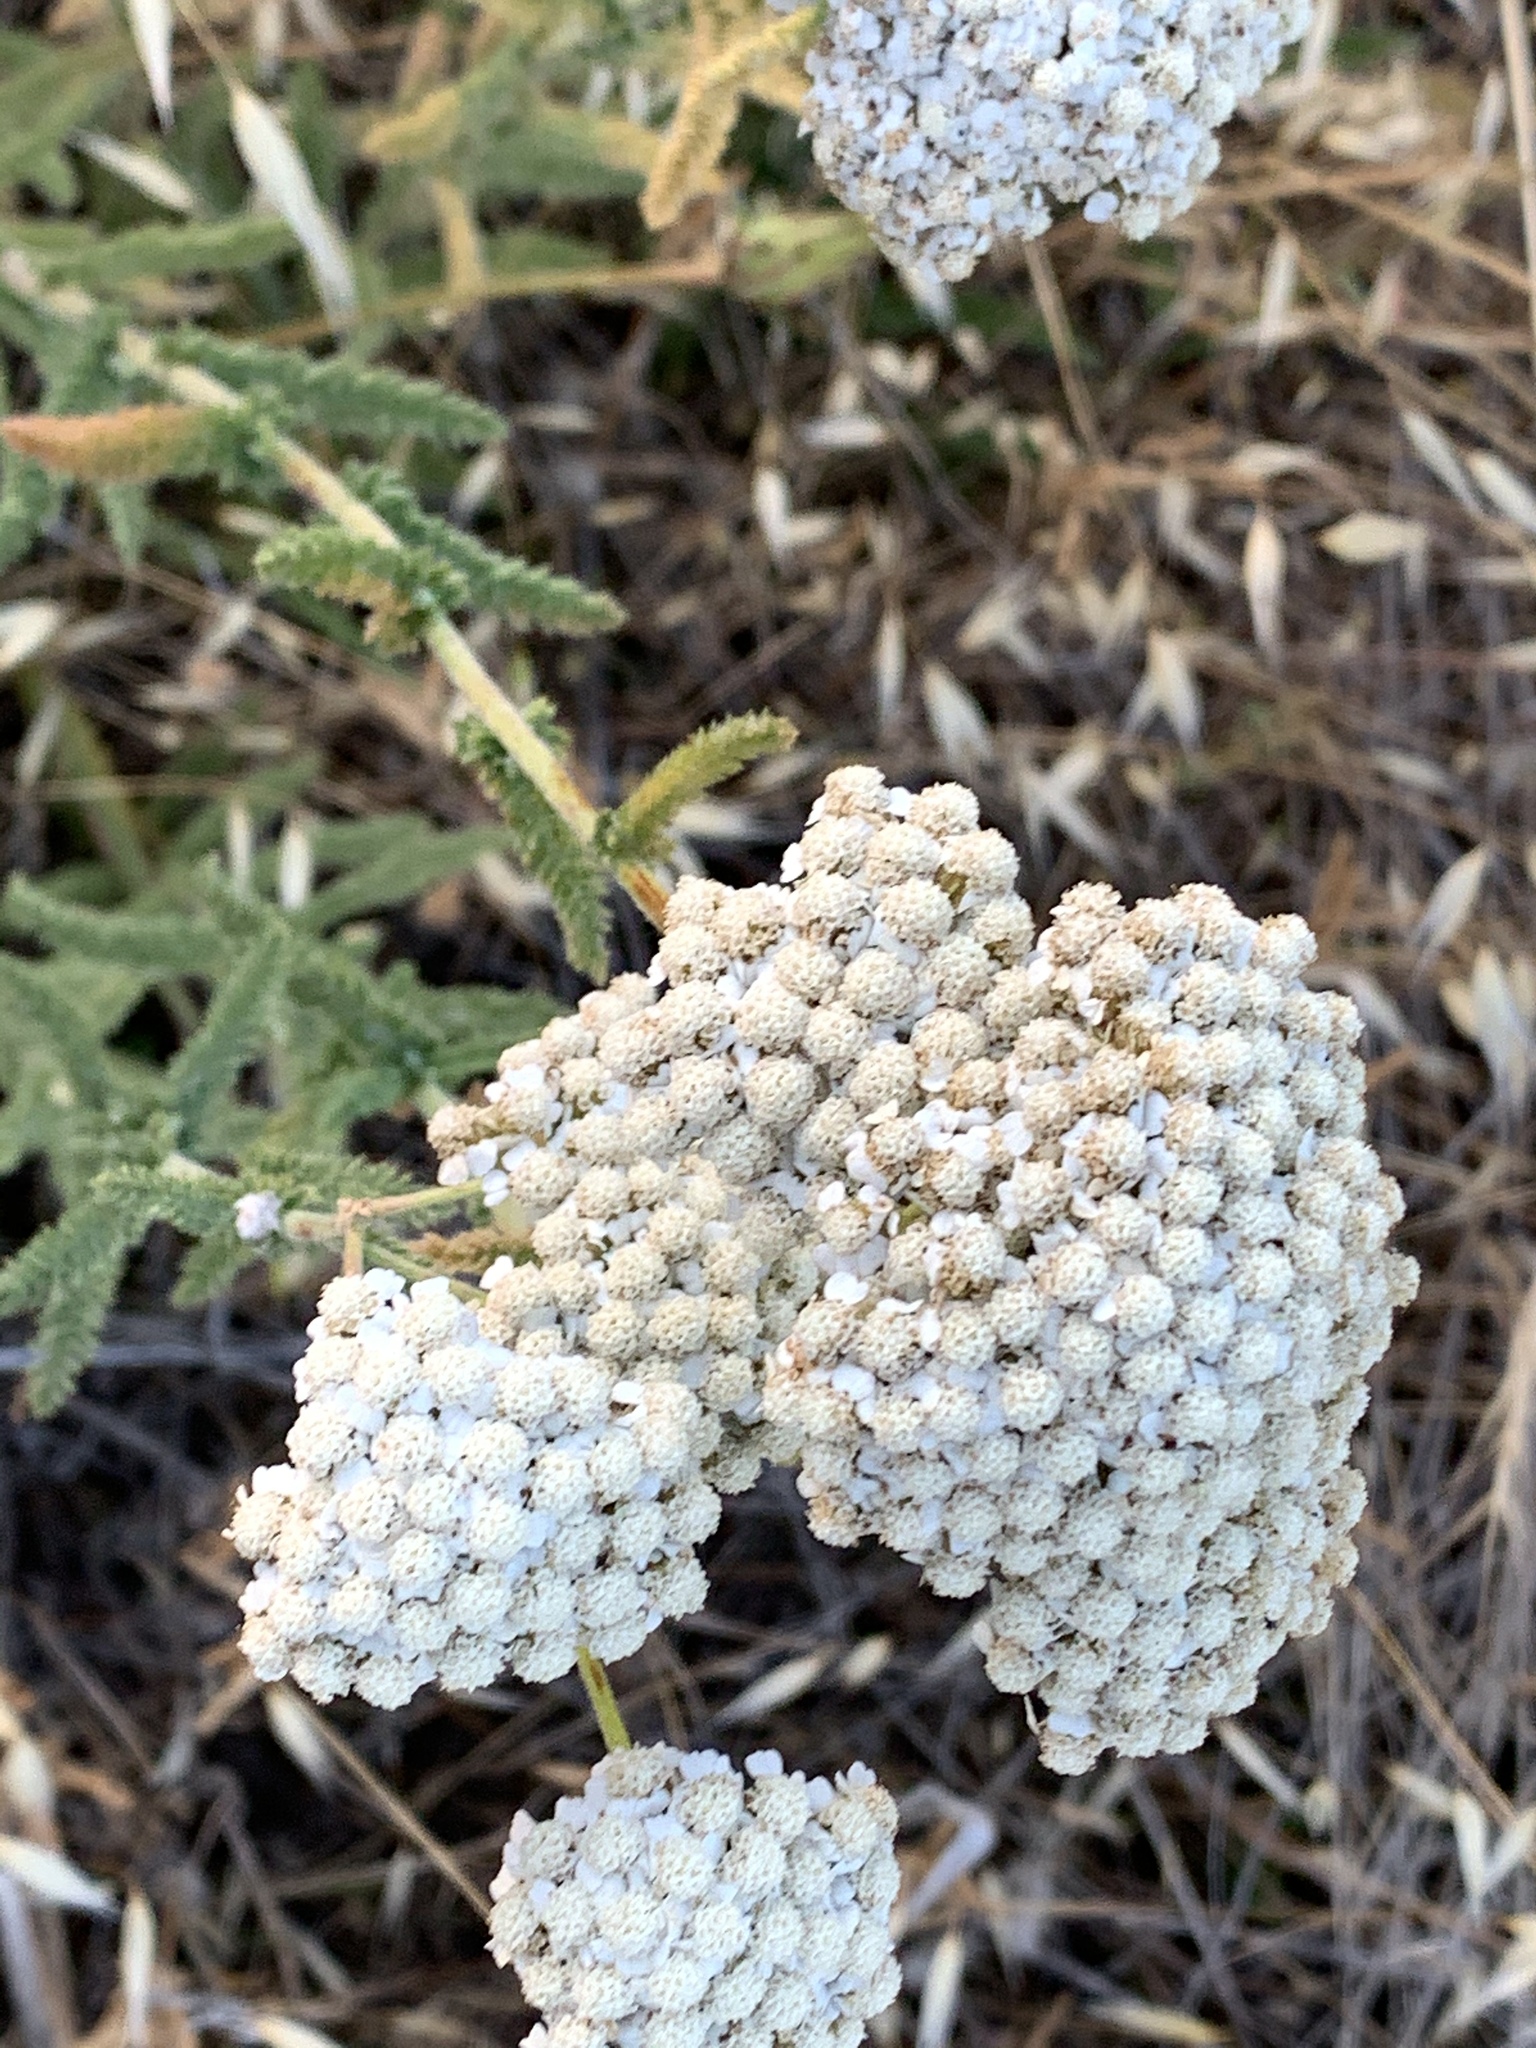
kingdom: Plantae
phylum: Tracheophyta
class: Magnoliopsida
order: Asterales
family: Asteraceae
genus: Achillea
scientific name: Achillea millefolium
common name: Yarrow
